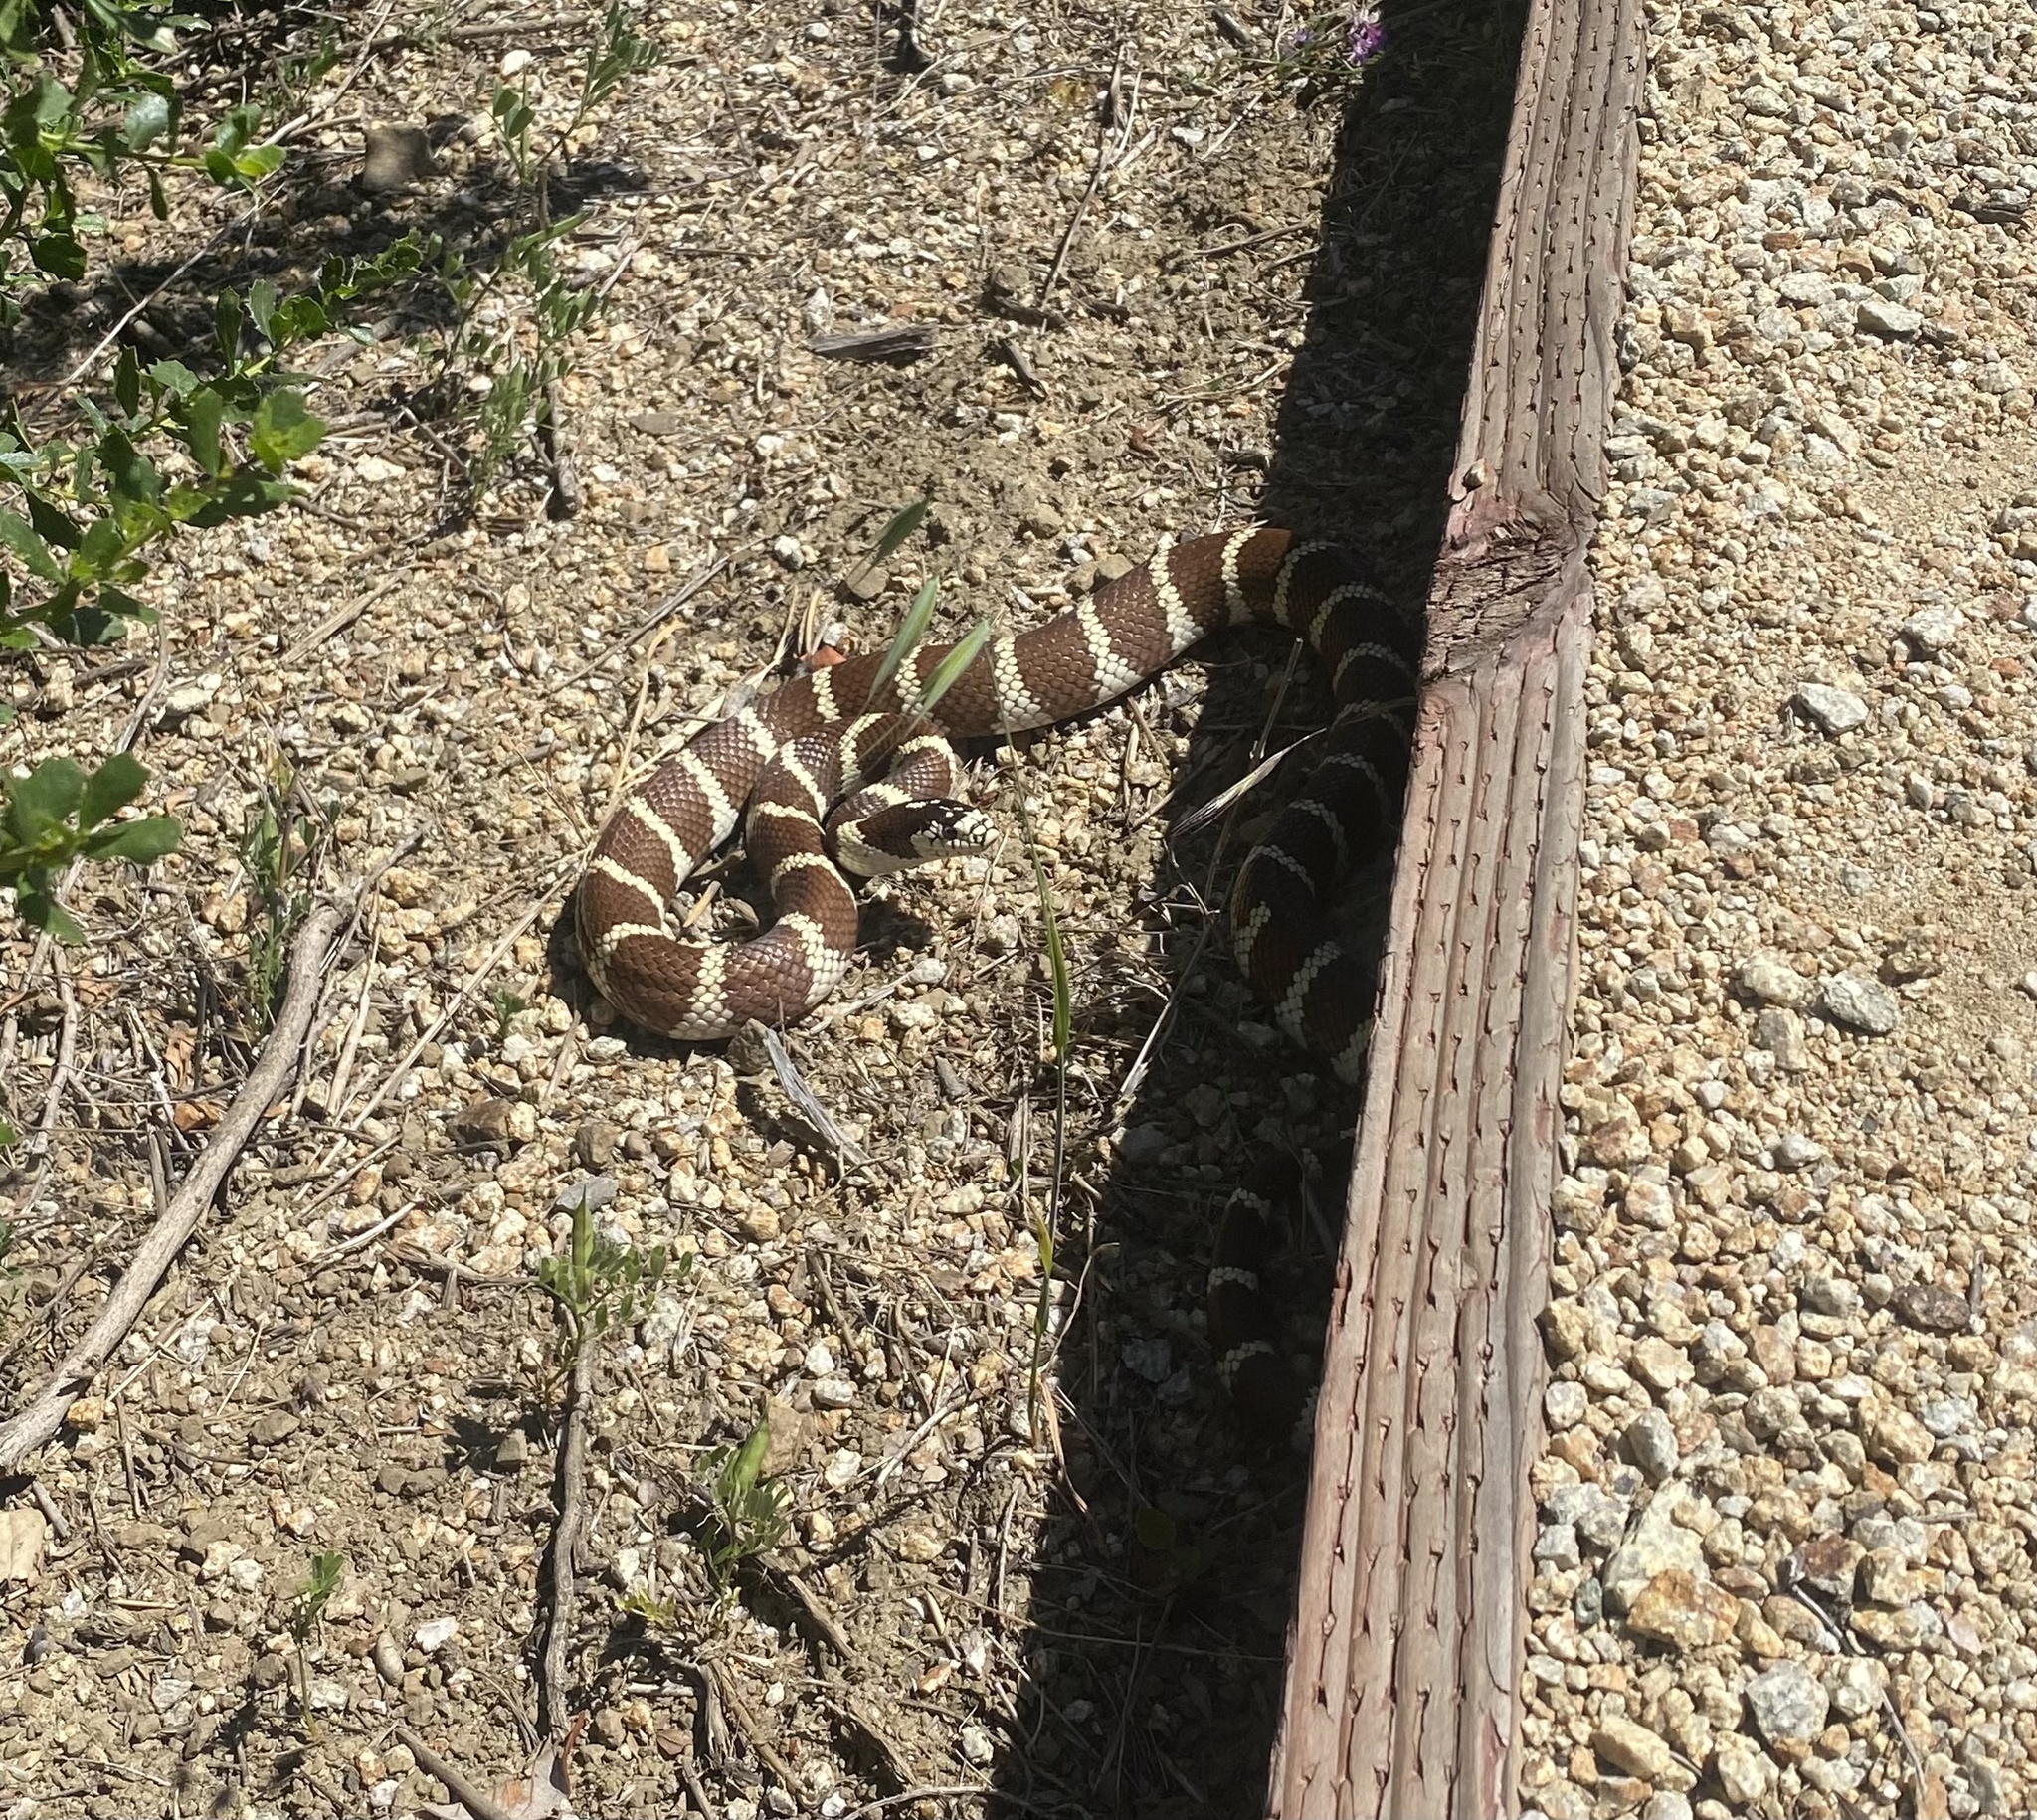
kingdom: Animalia
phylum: Chordata
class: Squamata
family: Colubridae
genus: Lampropeltis
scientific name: Lampropeltis californiae
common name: California kingsnake
